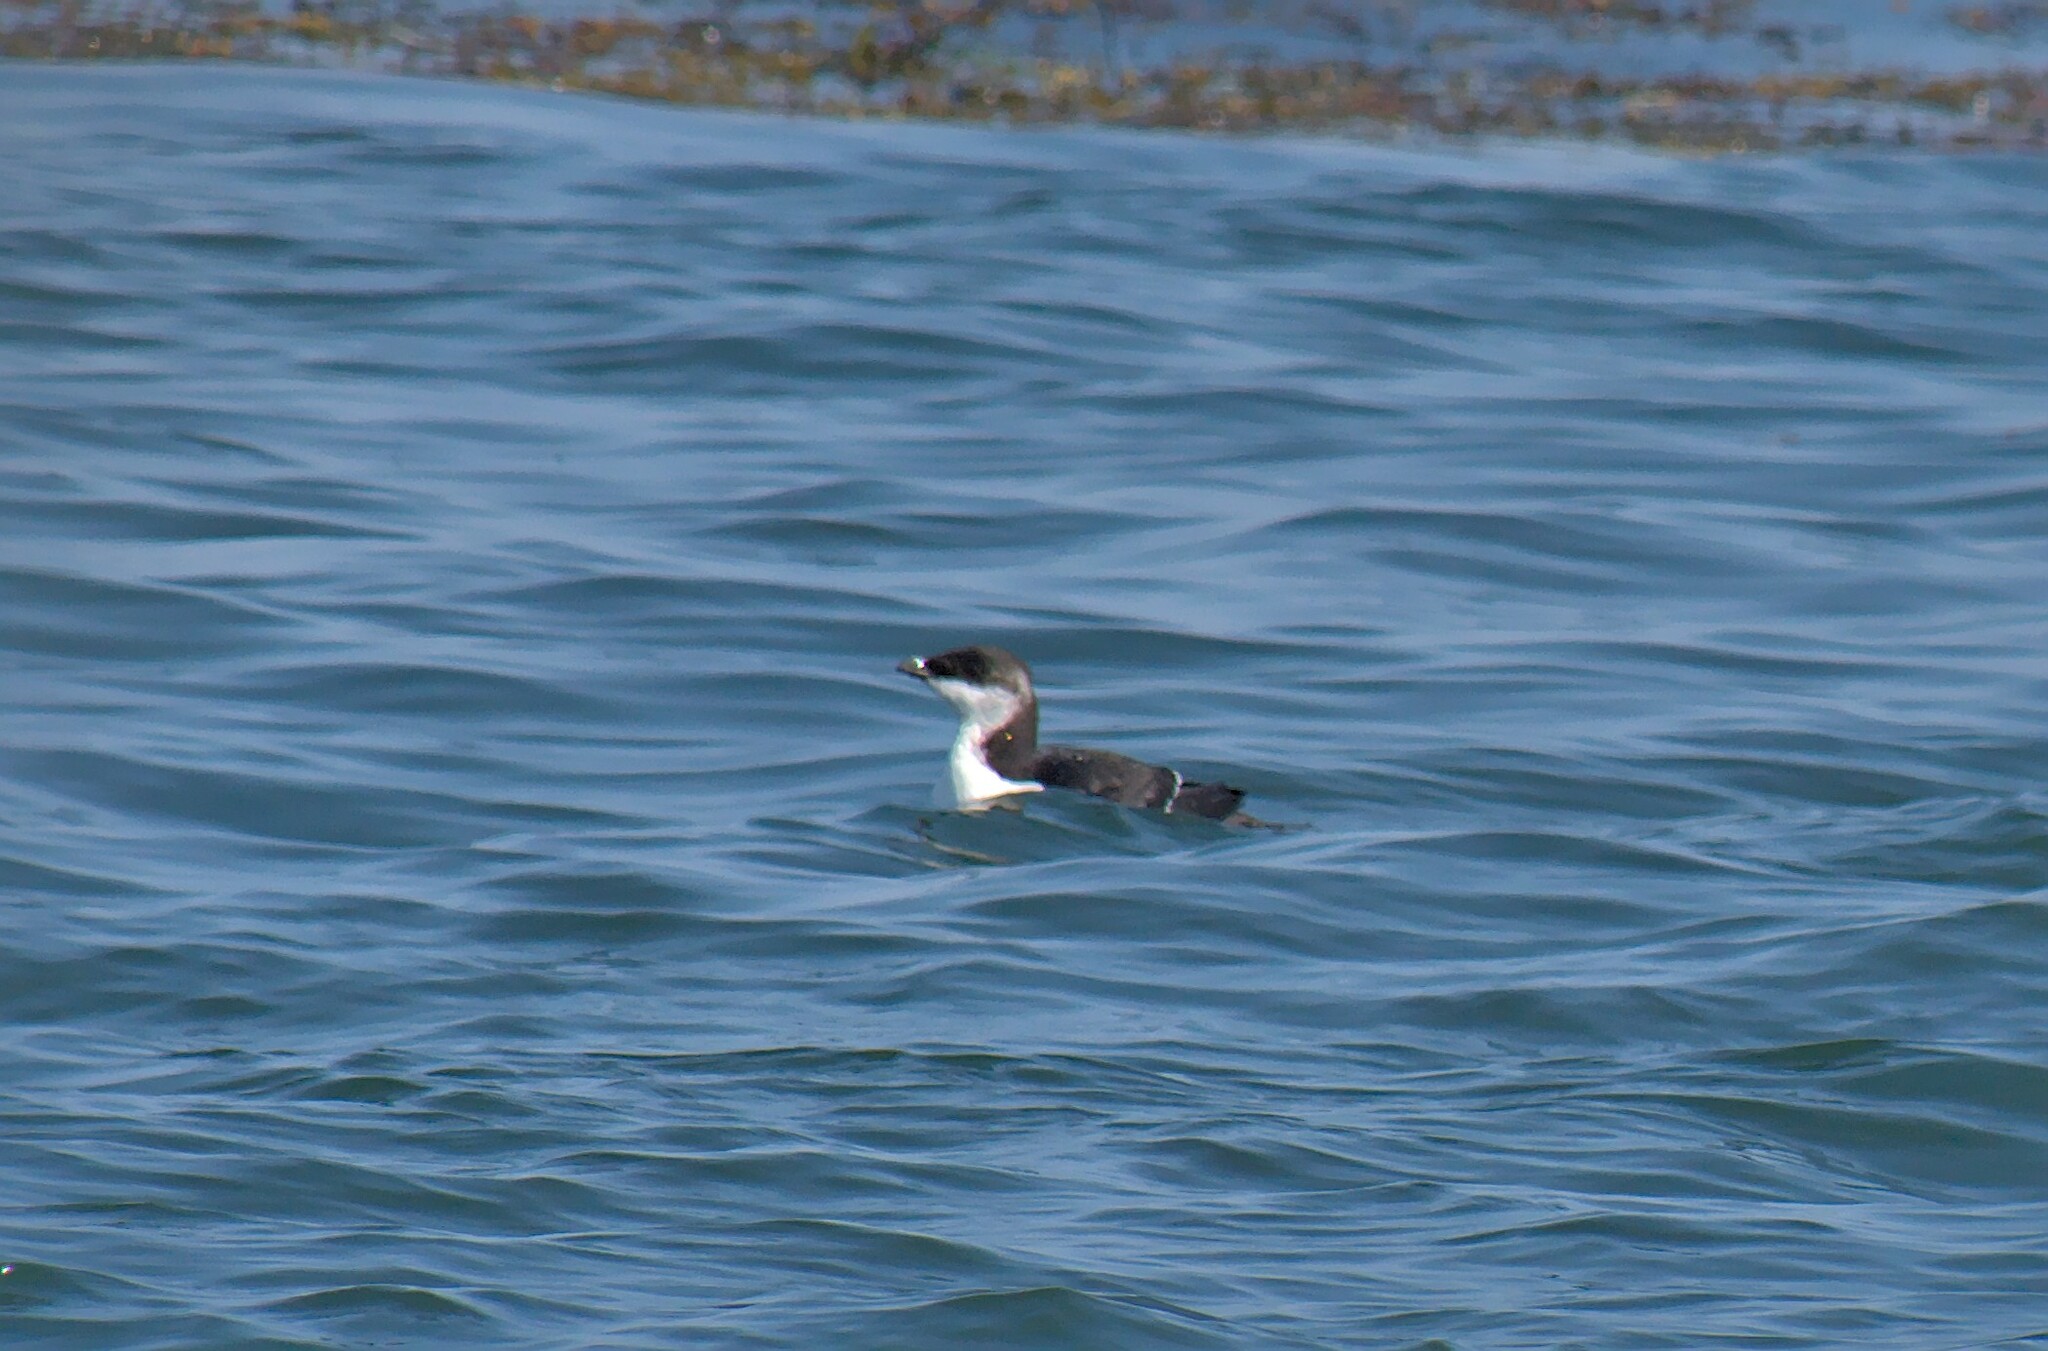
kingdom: Animalia
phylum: Chordata
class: Aves
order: Charadriiformes
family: Alcidae
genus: Alca
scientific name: Alca torda
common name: Razorbill
